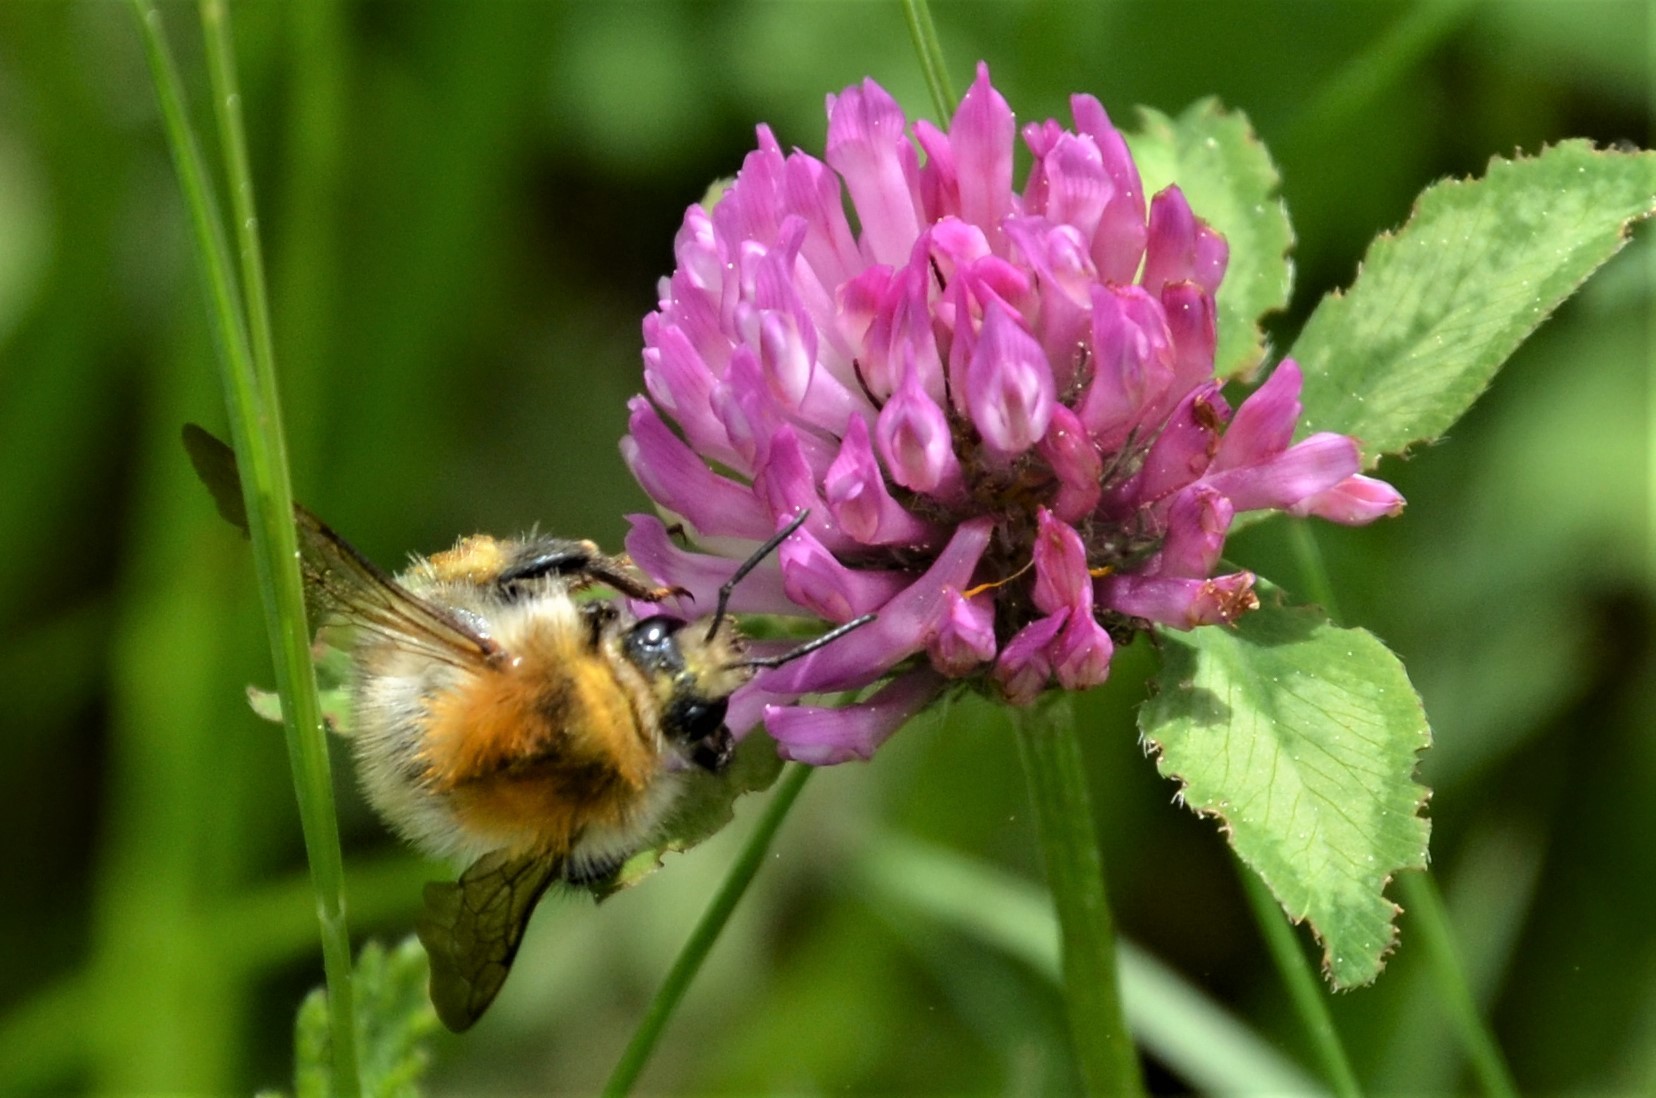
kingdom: Animalia
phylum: Arthropoda
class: Insecta
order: Hymenoptera
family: Apidae
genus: Bombus
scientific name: Bombus pascuorum
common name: Common carder bee
